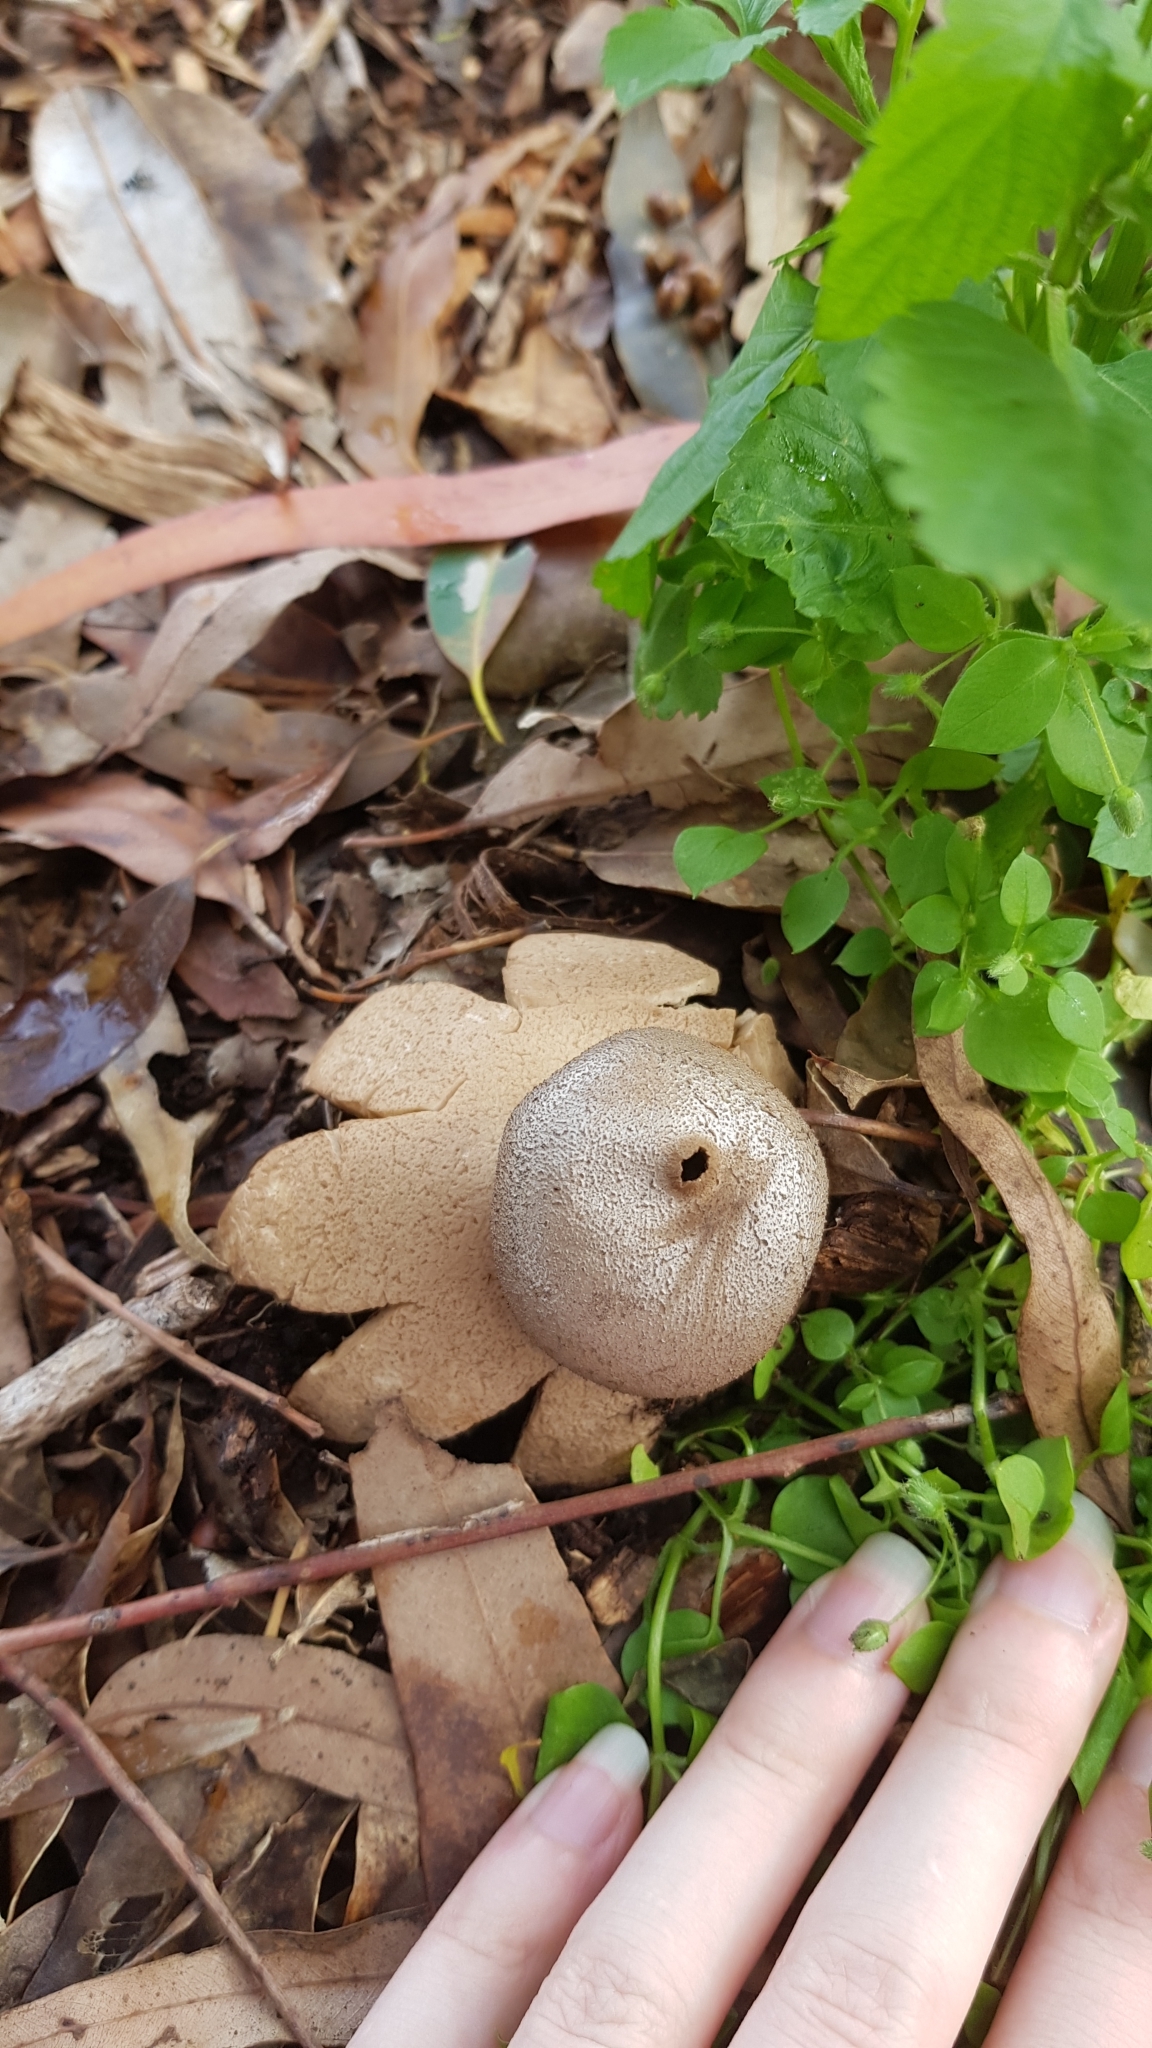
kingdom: Fungi
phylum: Basidiomycota
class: Agaricomycetes
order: Geastrales
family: Geastraceae
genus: Myriostoma
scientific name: Myriostoma australianum
